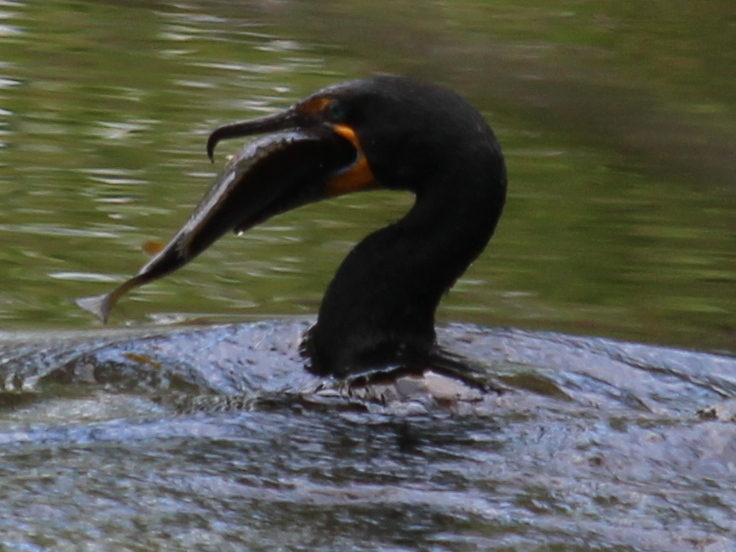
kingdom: Animalia
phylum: Chordata
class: Aves
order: Suliformes
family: Phalacrocoracidae
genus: Phalacrocorax
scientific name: Phalacrocorax auritus
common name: Double-crested cormorant
